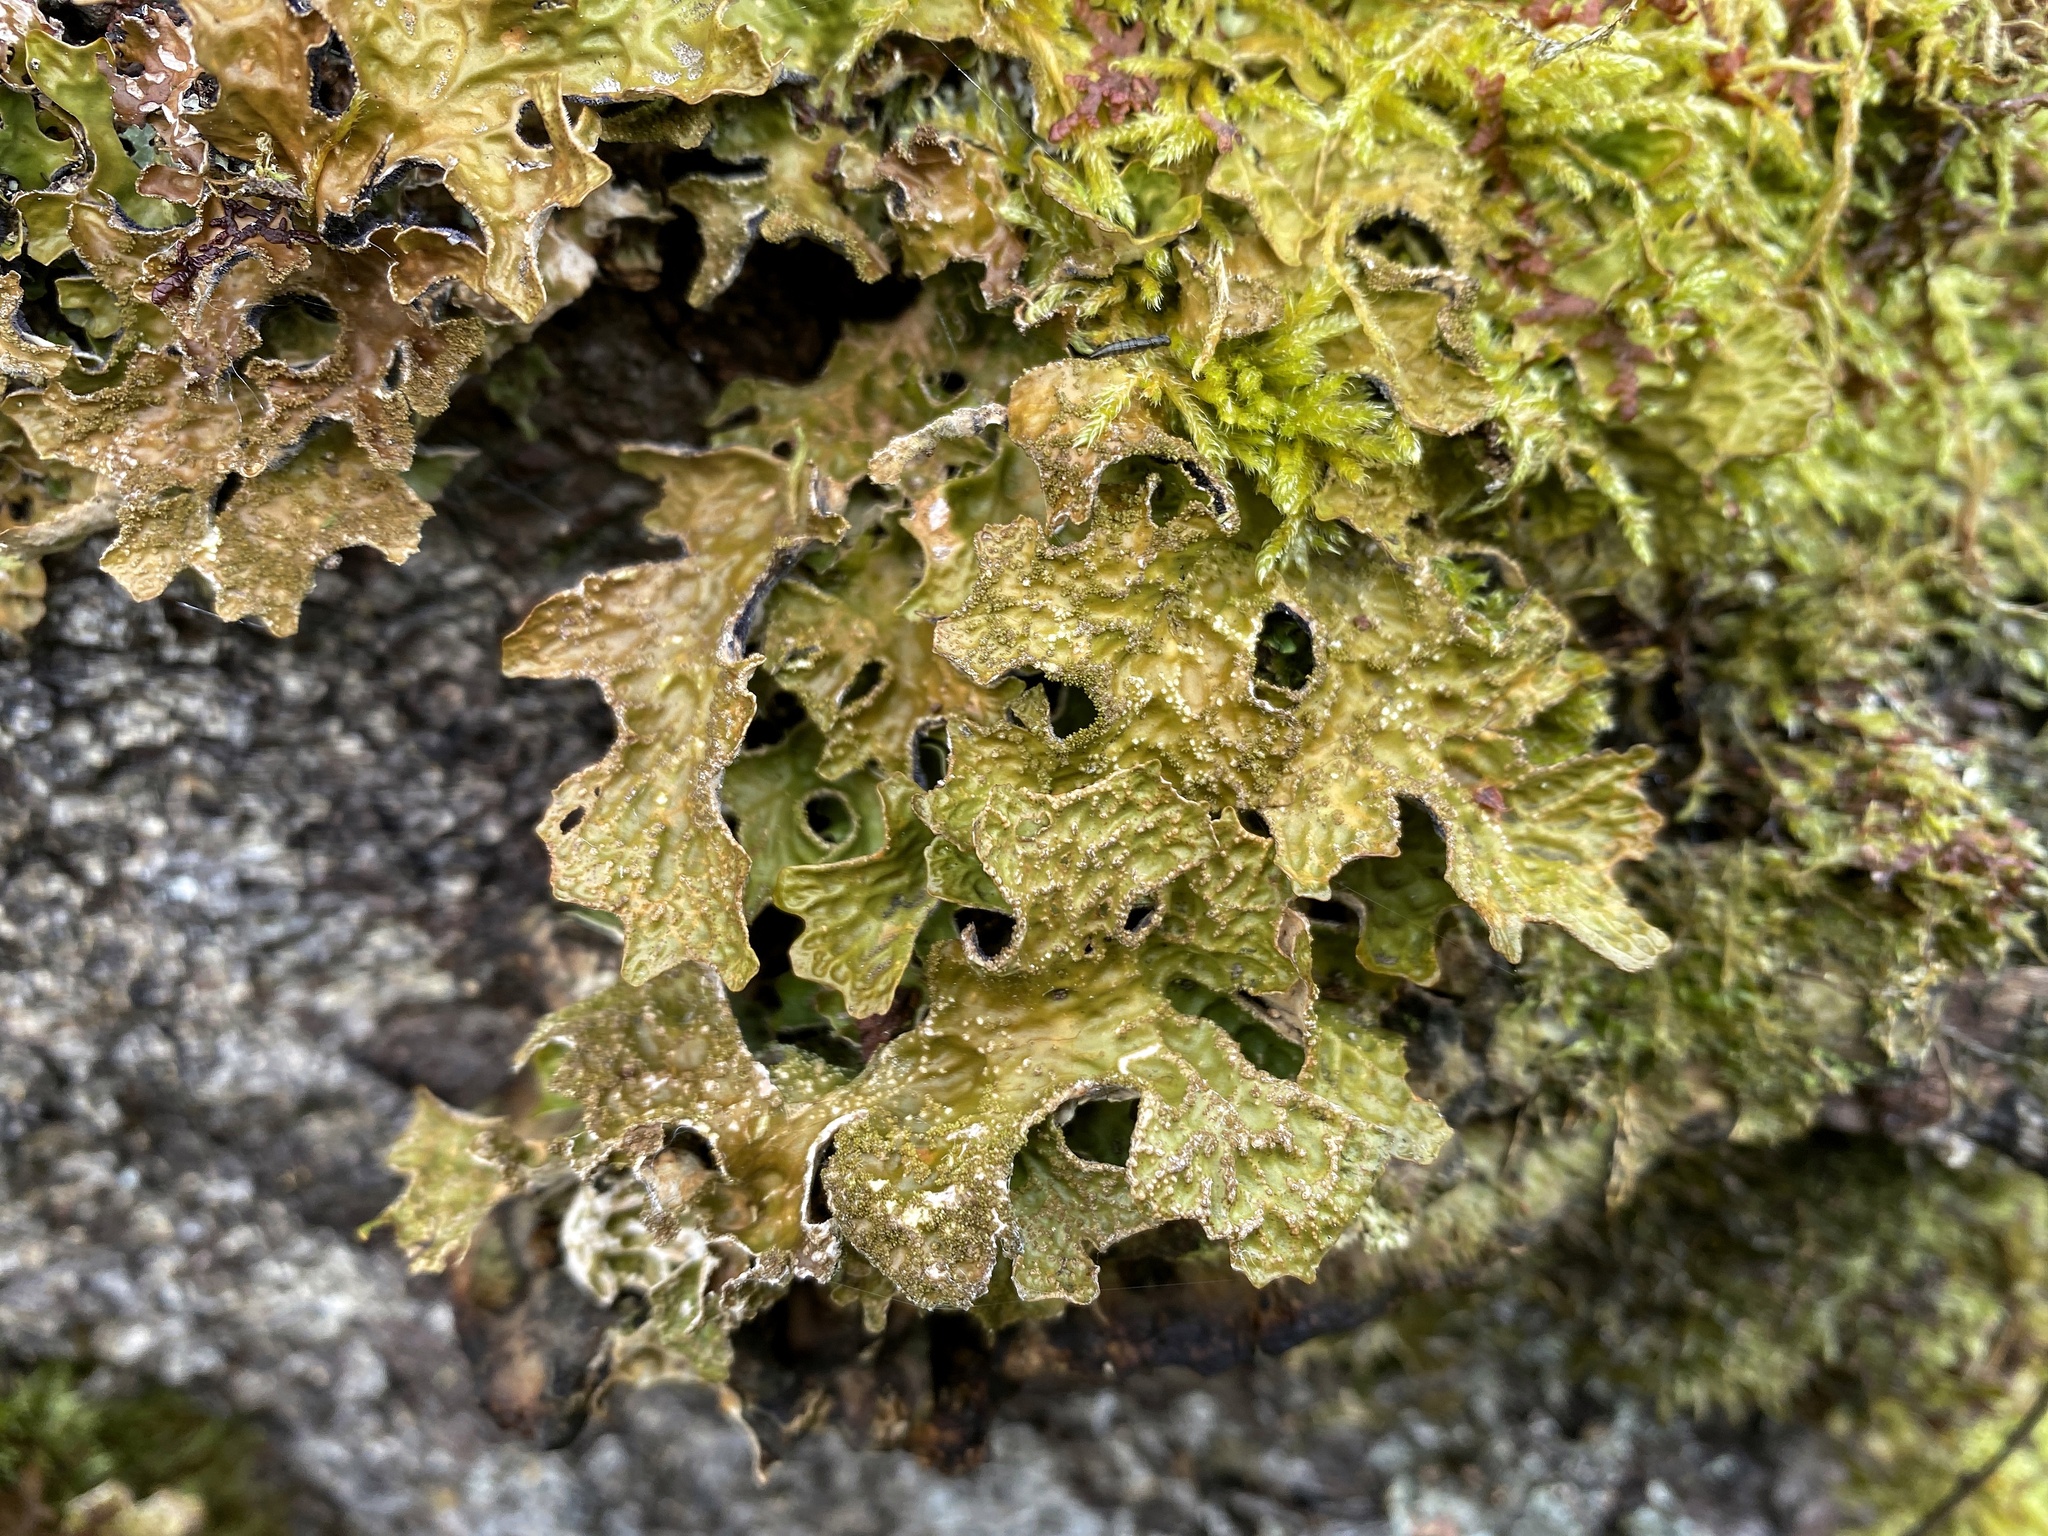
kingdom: Fungi
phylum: Ascomycota
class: Lecanoromycetes
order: Peltigerales
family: Lobariaceae
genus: Lobaria
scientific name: Lobaria pulmonaria
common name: Lungwort
